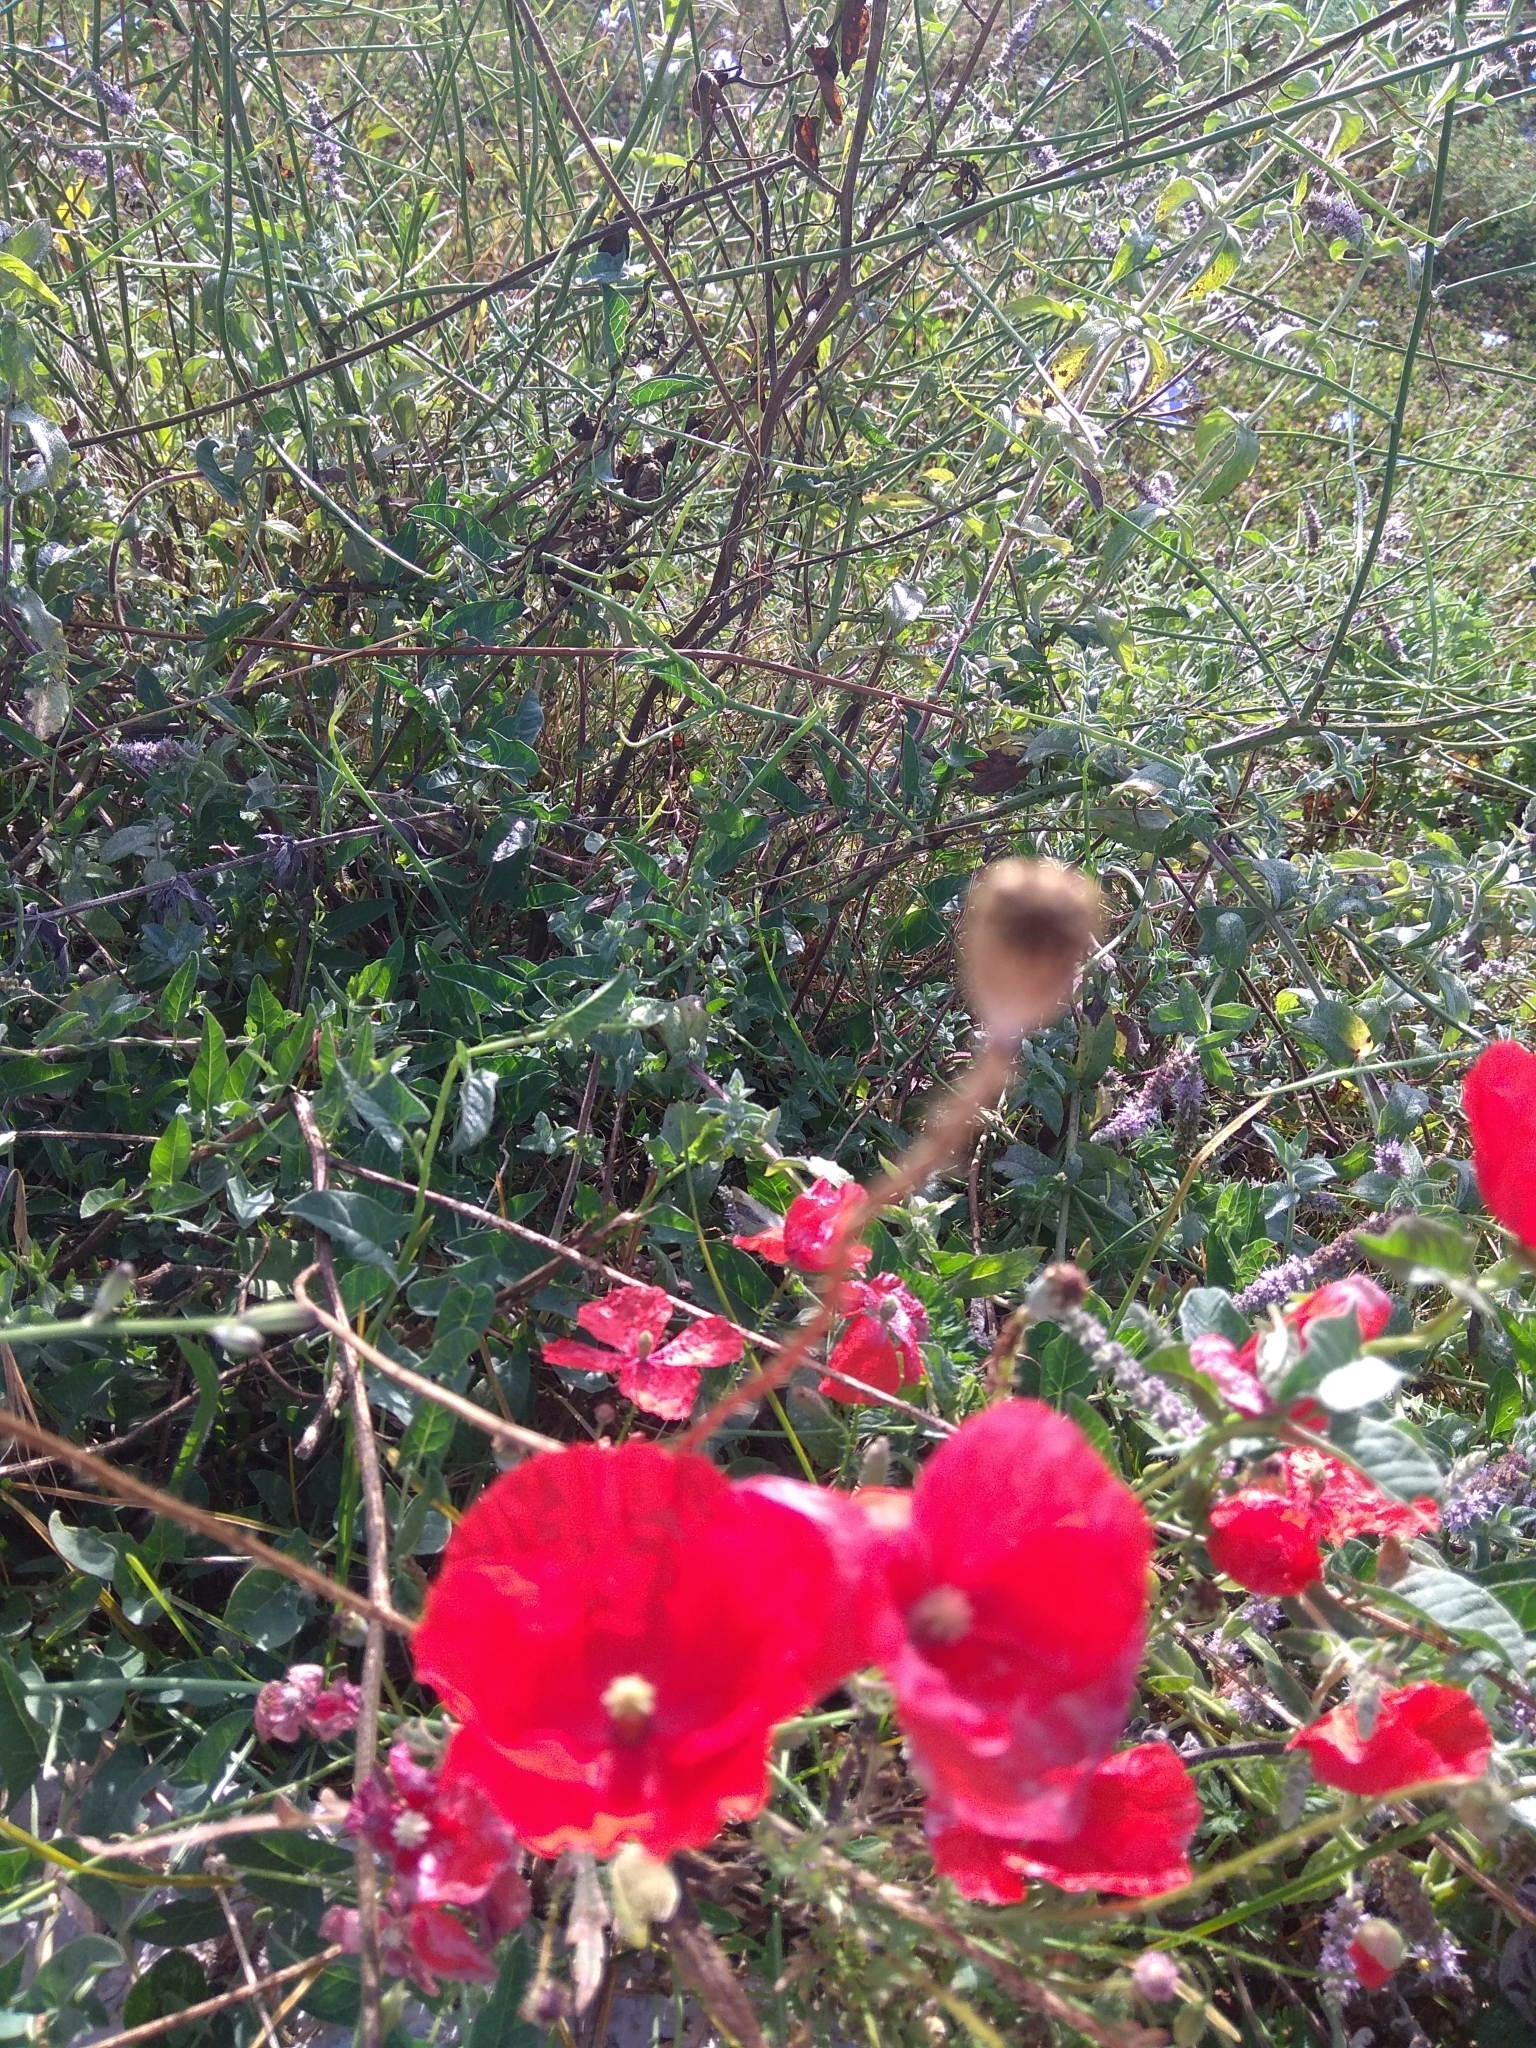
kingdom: Plantae
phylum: Tracheophyta
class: Magnoliopsida
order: Ranunculales
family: Papaveraceae
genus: Papaver
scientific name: Papaver rhoeas
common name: Corn poppy
